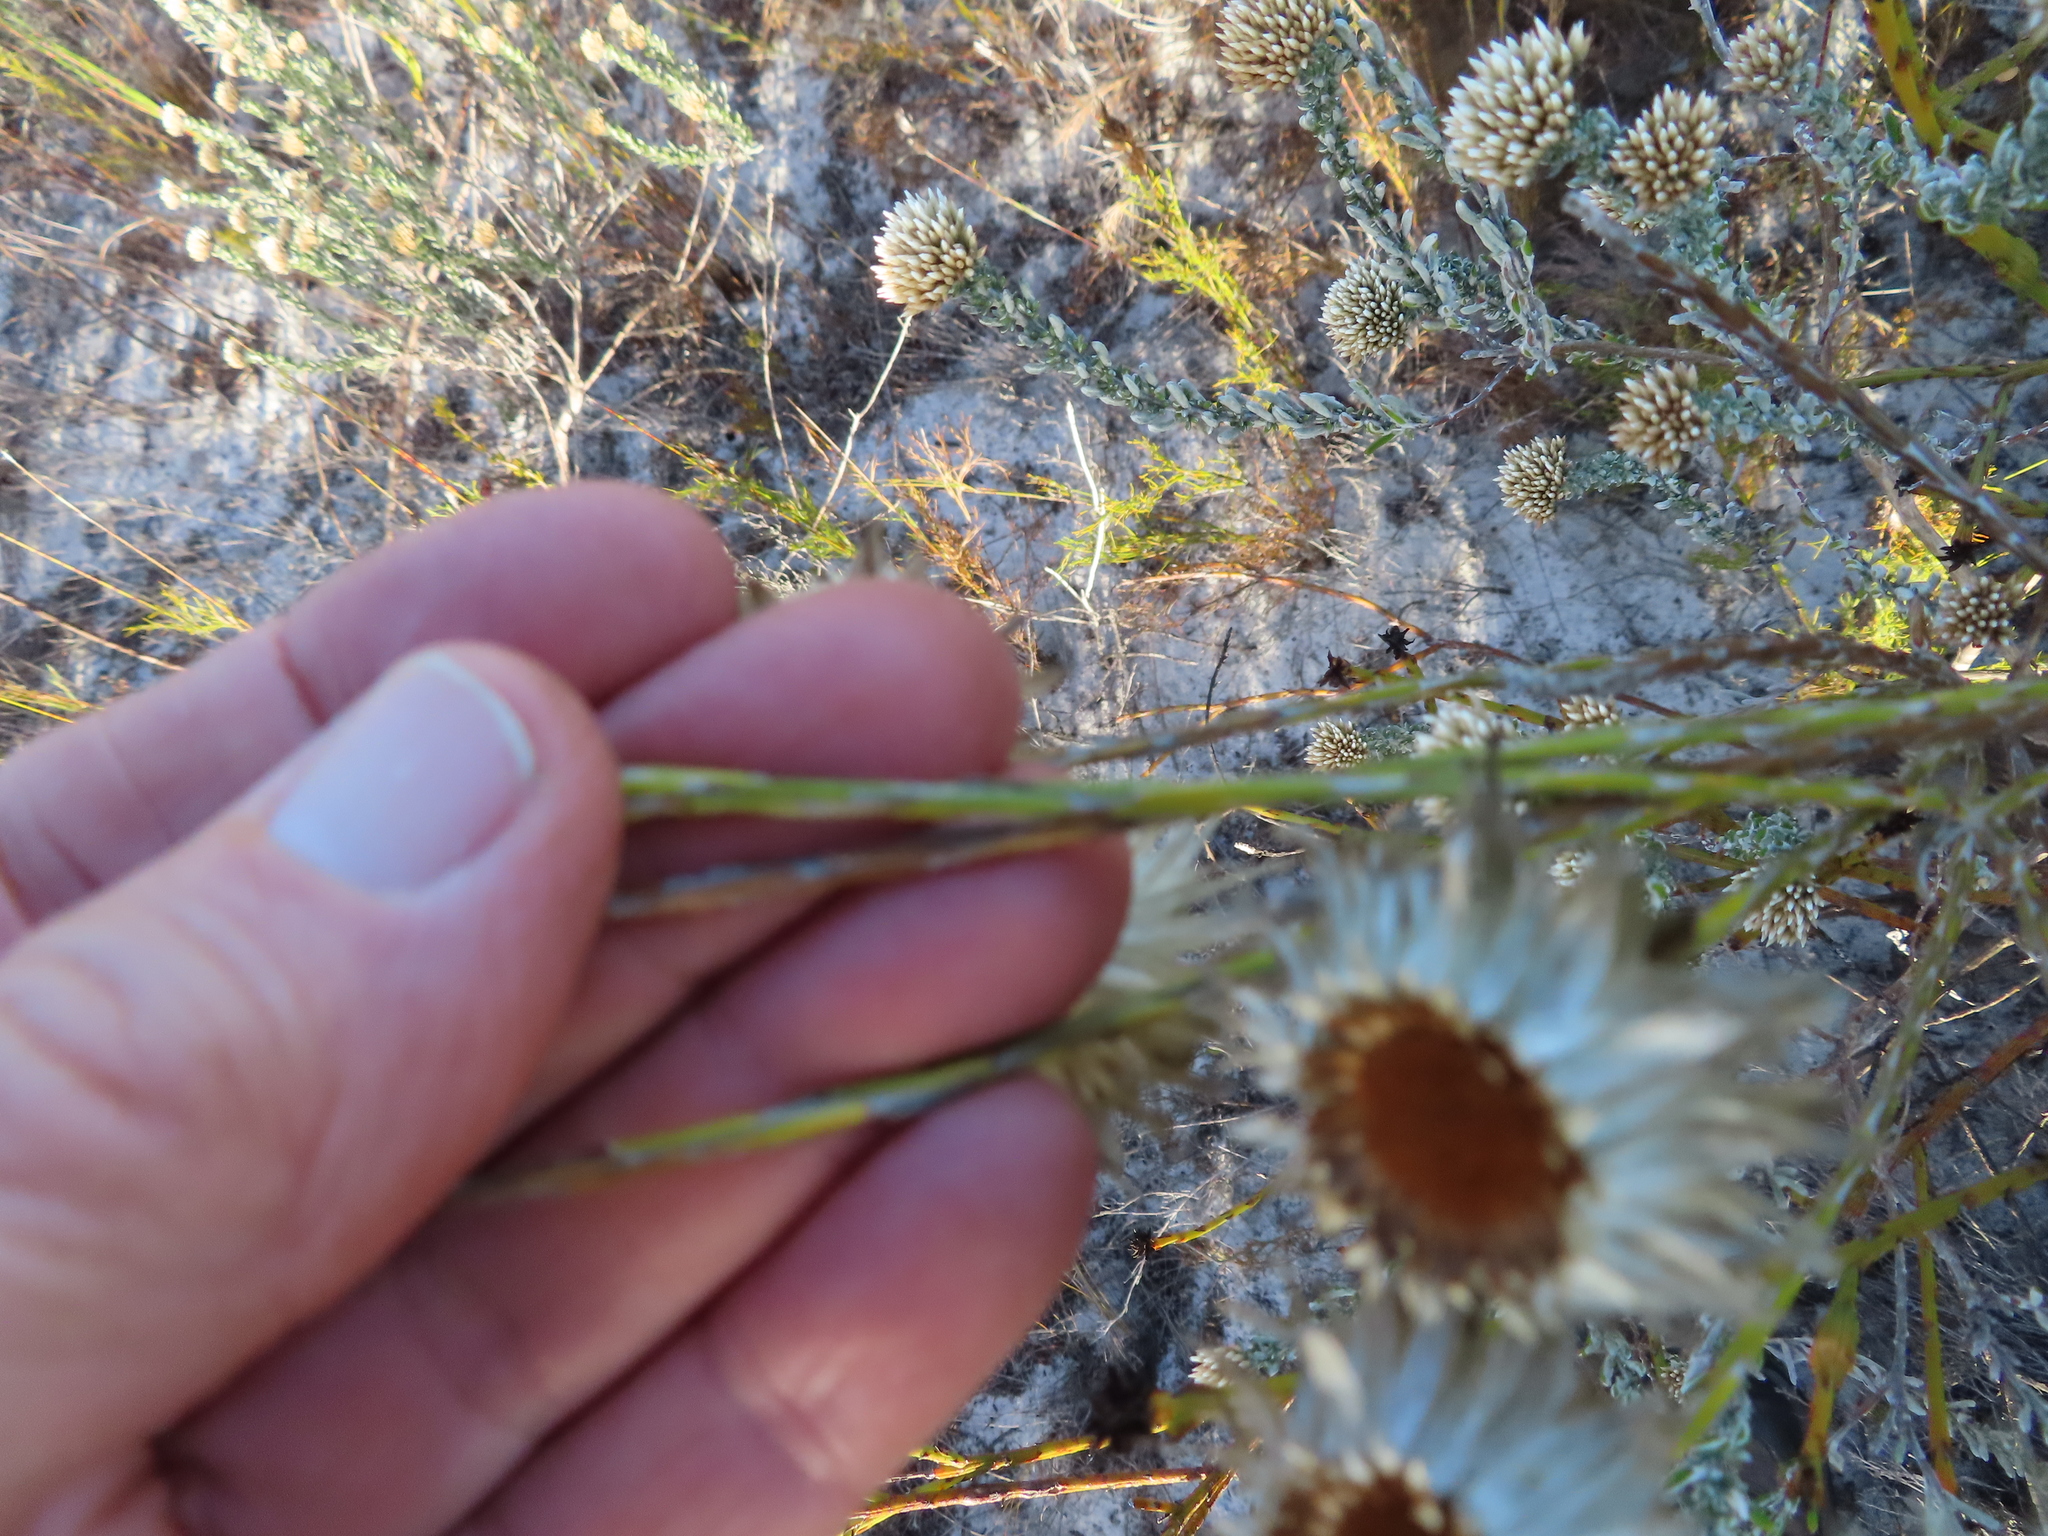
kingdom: Plantae
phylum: Tracheophyta
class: Magnoliopsida
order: Asterales
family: Asteraceae
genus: Edmondia
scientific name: Edmondia sesamoides
